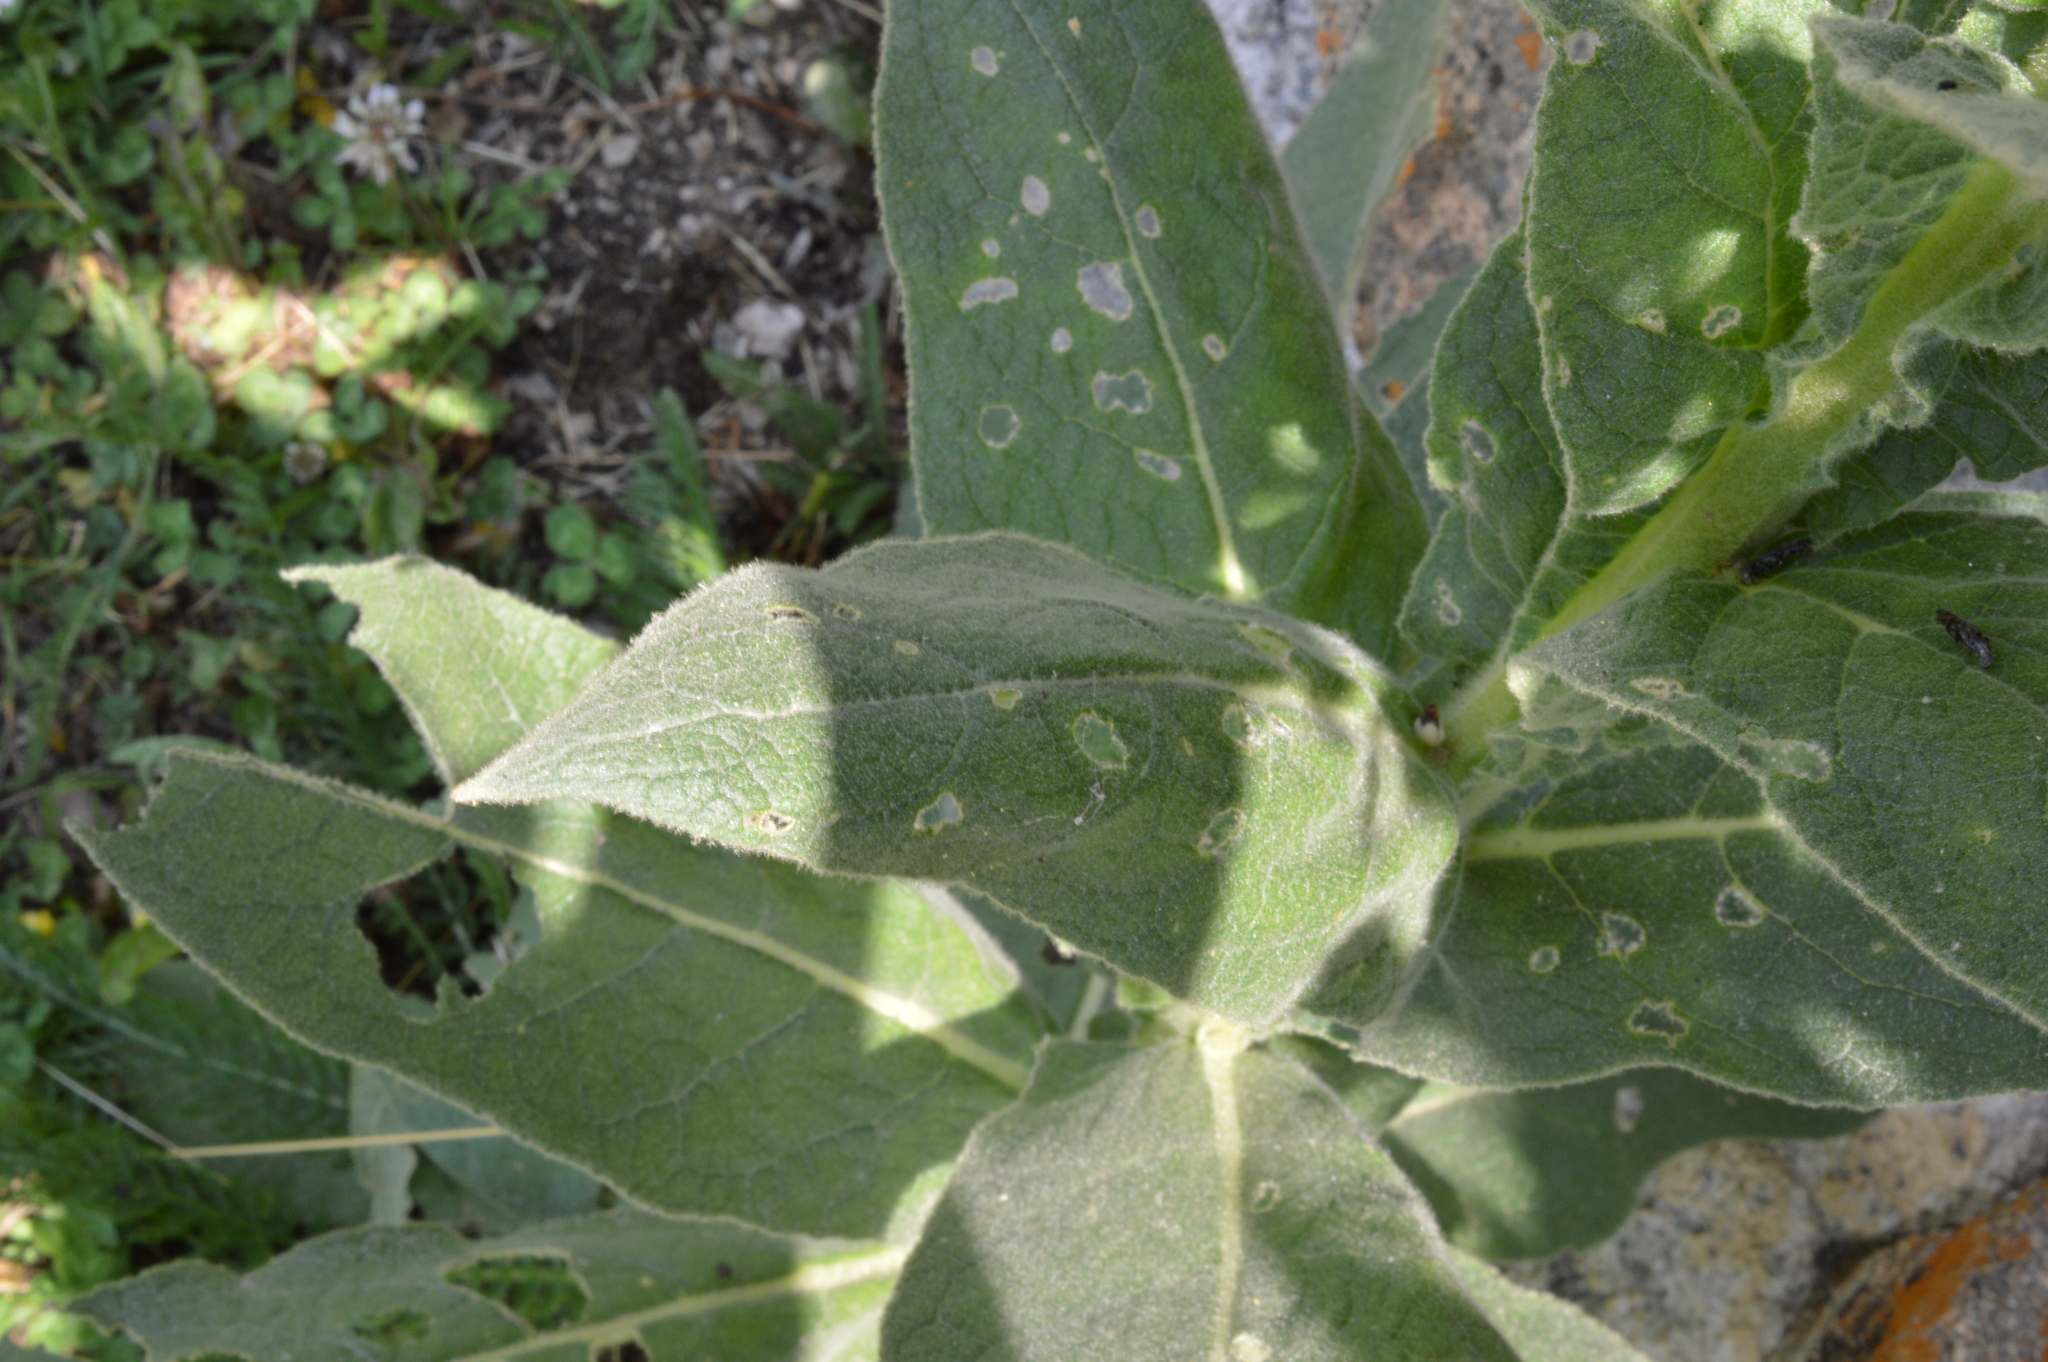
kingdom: Plantae
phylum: Tracheophyta
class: Magnoliopsida
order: Lamiales
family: Scrophulariaceae
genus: Verbascum
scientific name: Verbascum thapsus
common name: Common mullein
